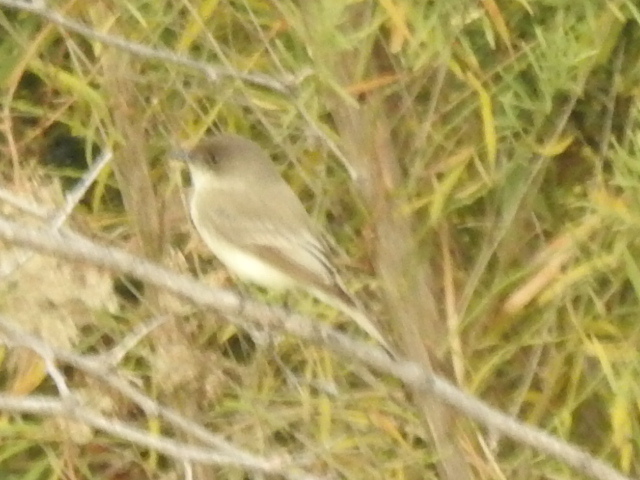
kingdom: Animalia
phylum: Chordata
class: Aves
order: Passeriformes
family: Tyrannidae
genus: Sayornis
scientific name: Sayornis phoebe
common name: Eastern phoebe
